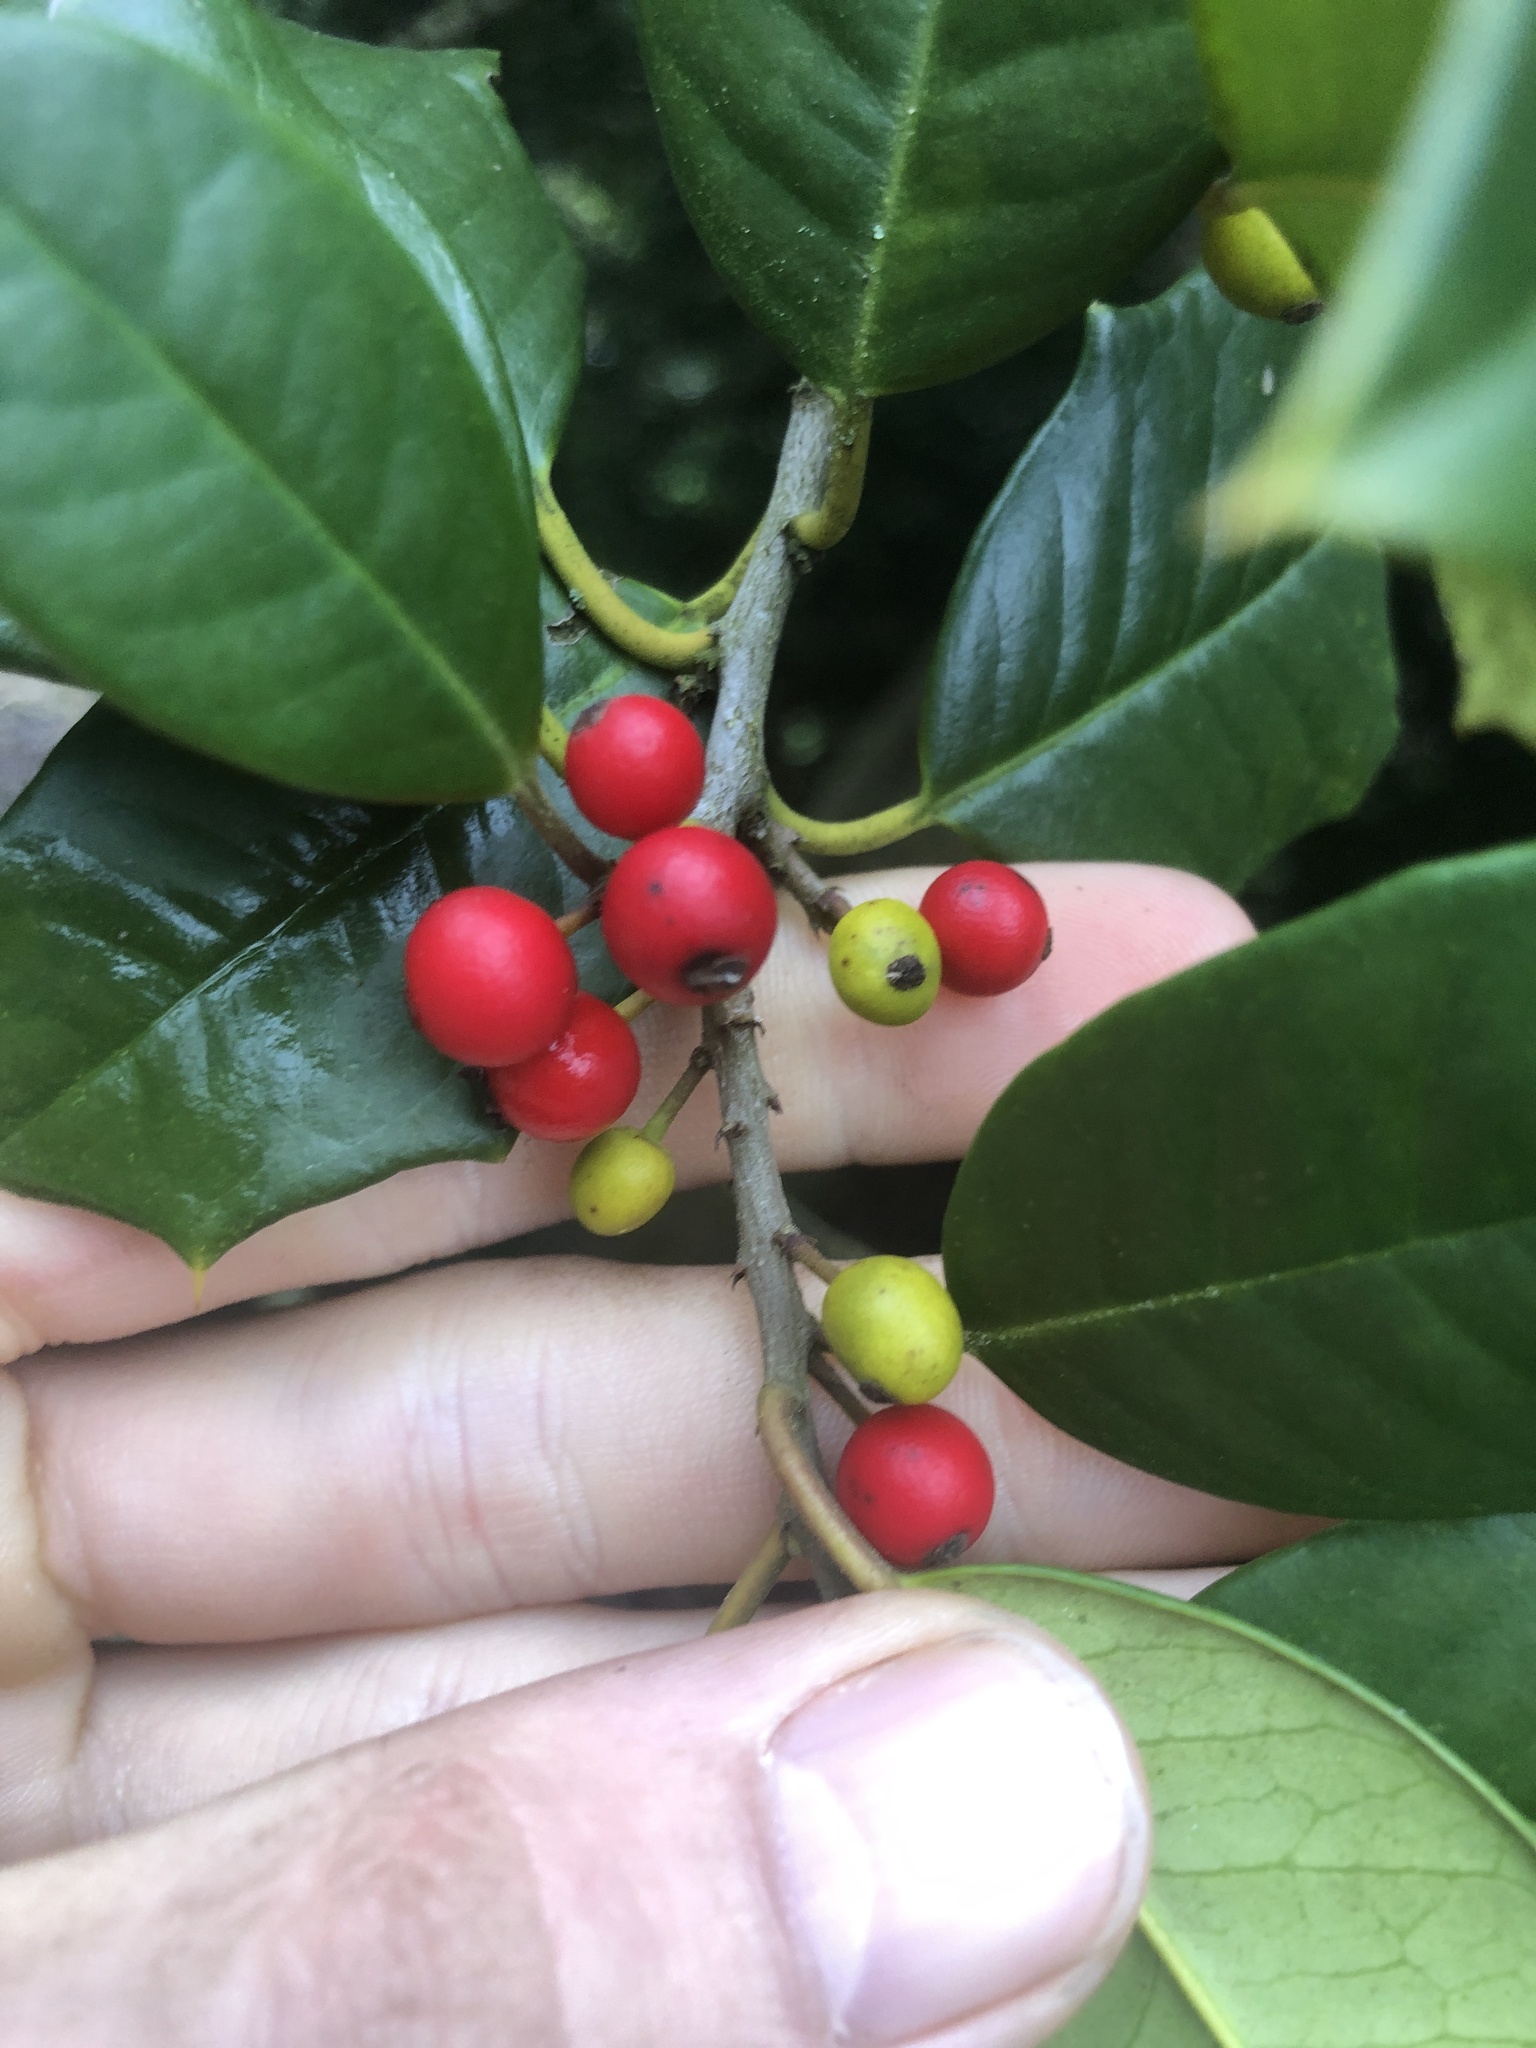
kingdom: Animalia
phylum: Arthropoda
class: Insecta
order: Diptera
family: Cecidomyiidae
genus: Asphondylia
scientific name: Asphondylia ilicicola
